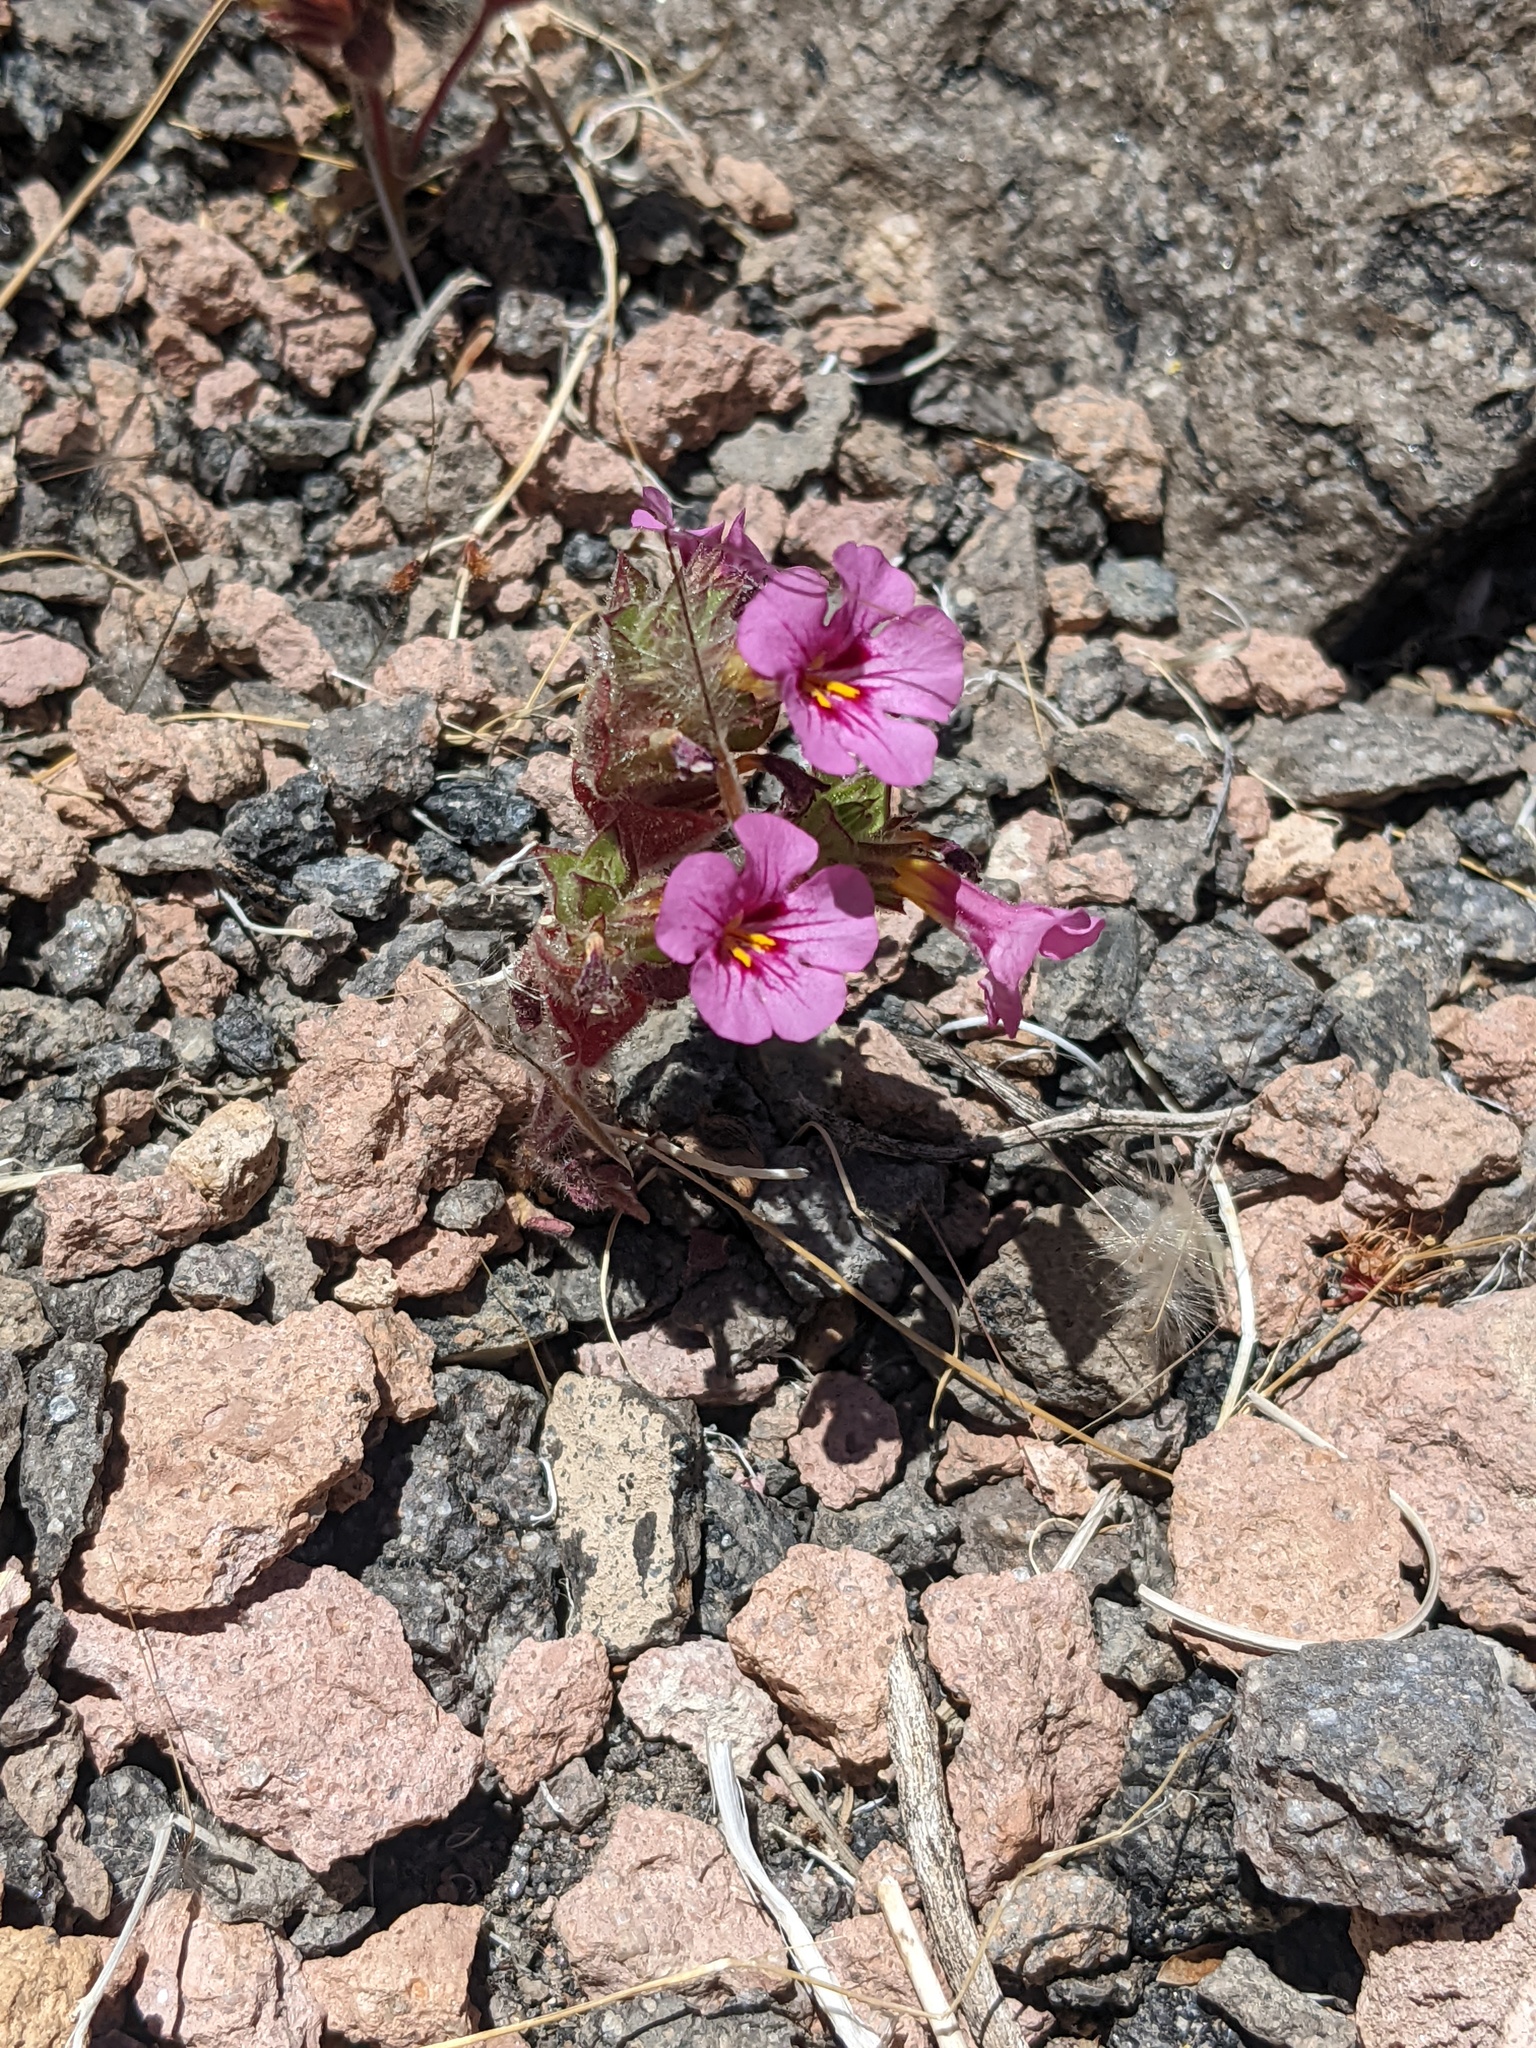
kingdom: Plantae
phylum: Tracheophyta
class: Magnoliopsida
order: Lamiales
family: Phrymaceae
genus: Diplacus
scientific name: Diplacus bigelovii
